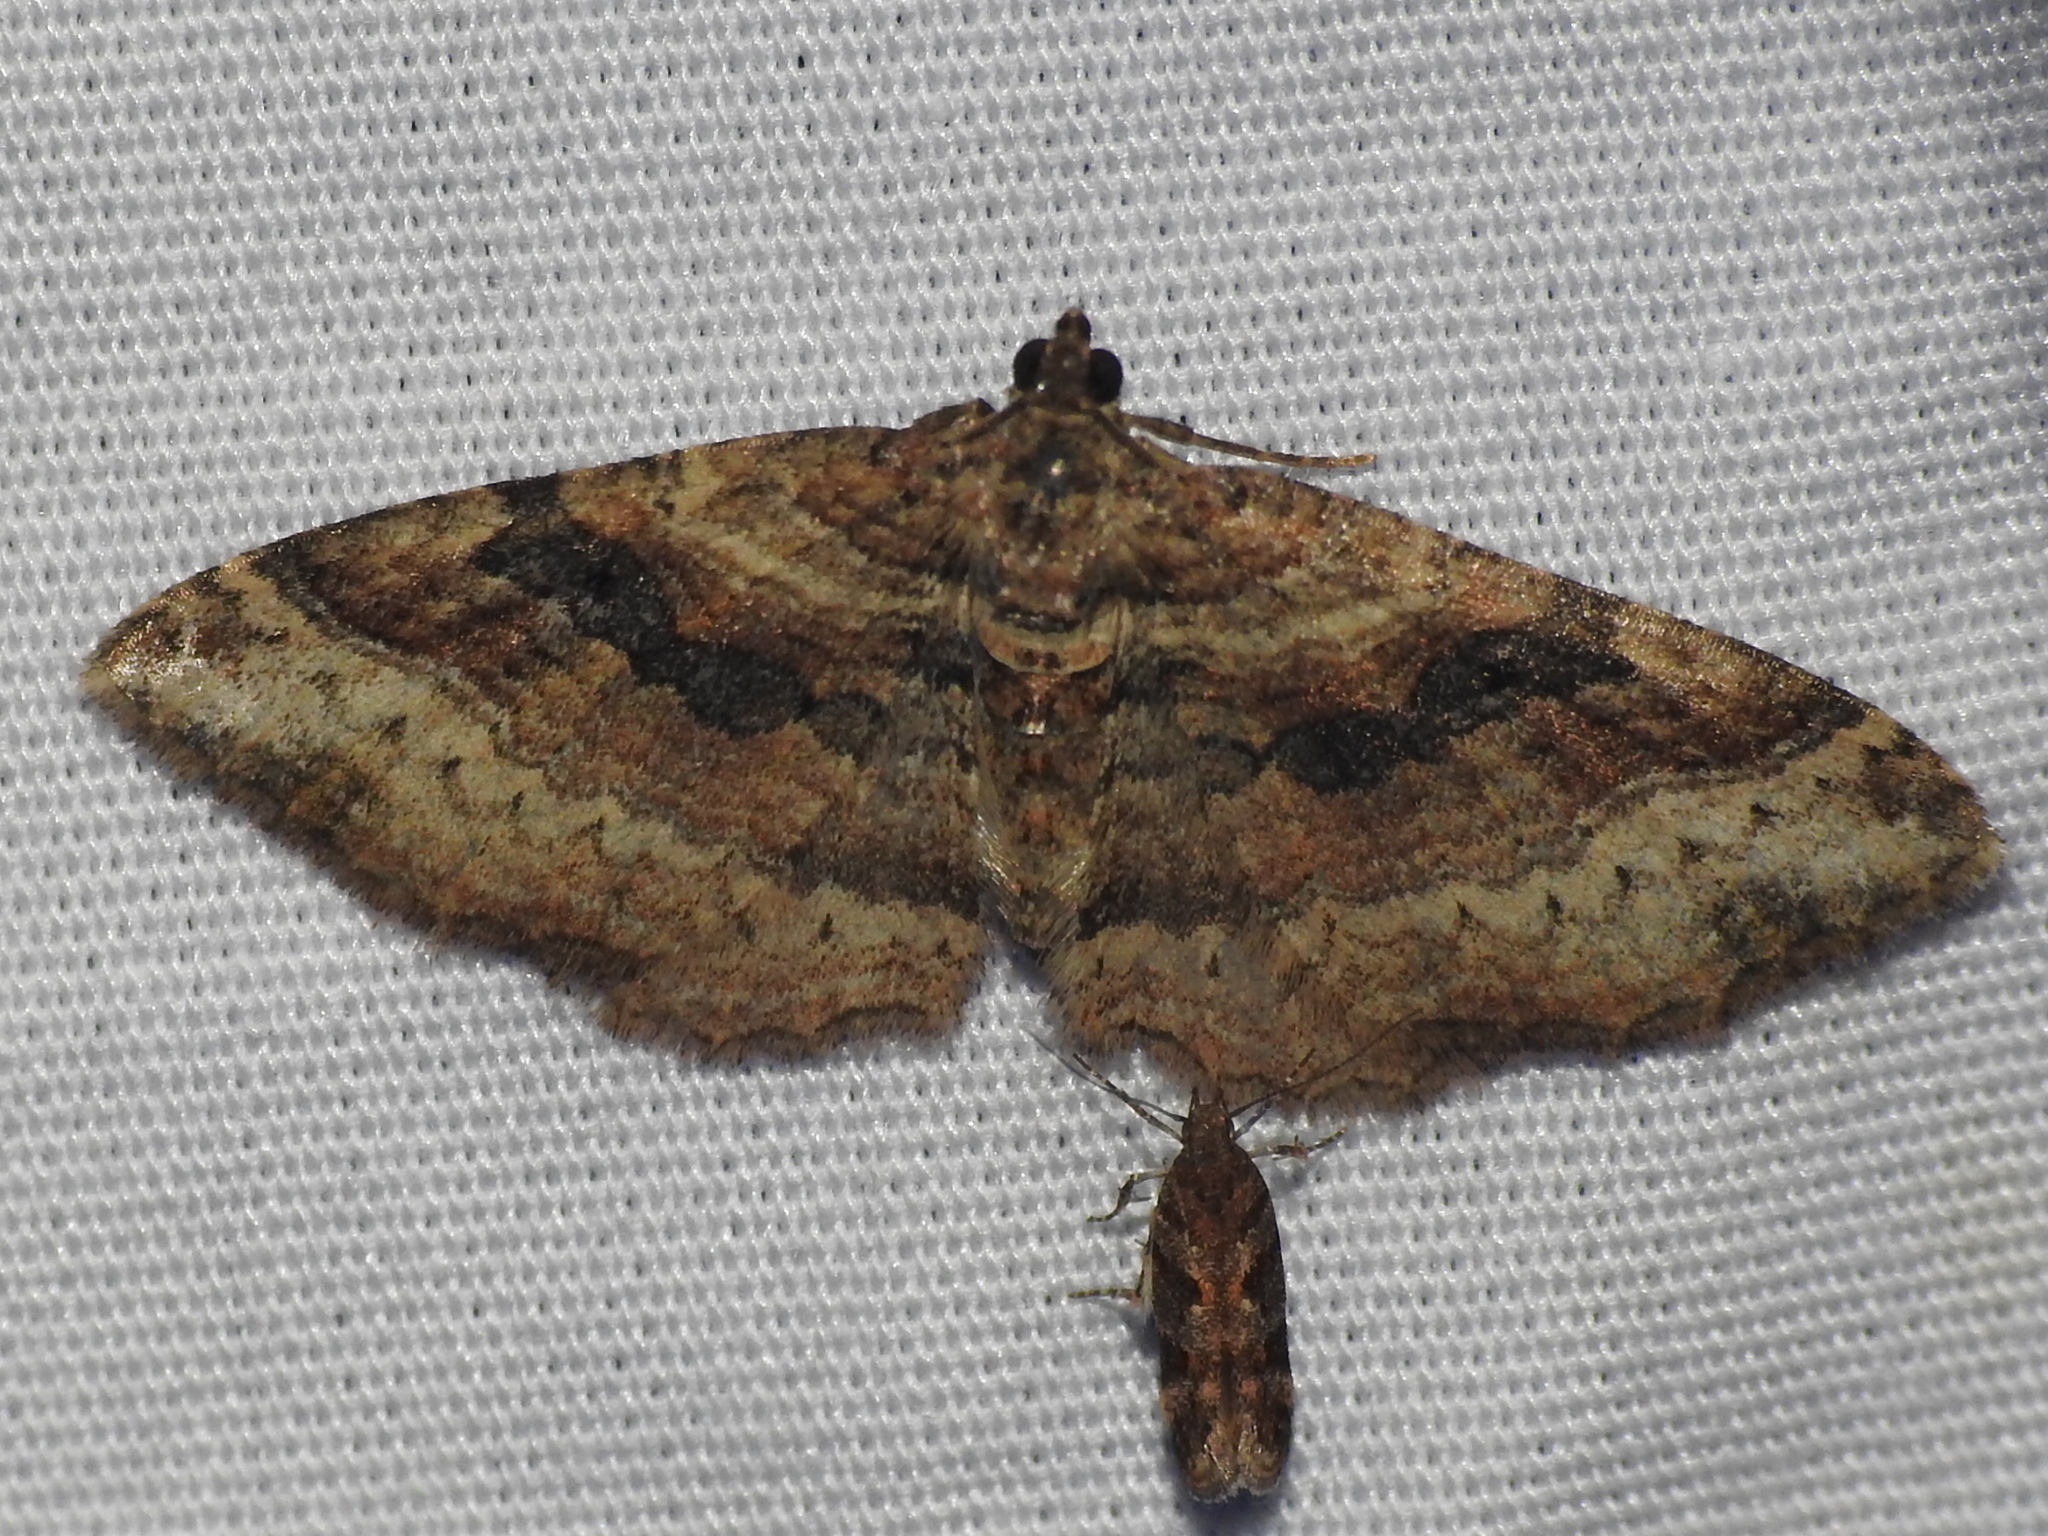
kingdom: Animalia
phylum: Arthropoda
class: Insecta
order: Lepidoptera
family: Geometridae
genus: Costaconvexa
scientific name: Costaconvexa centrostrigaria
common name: Bent-line carpet
